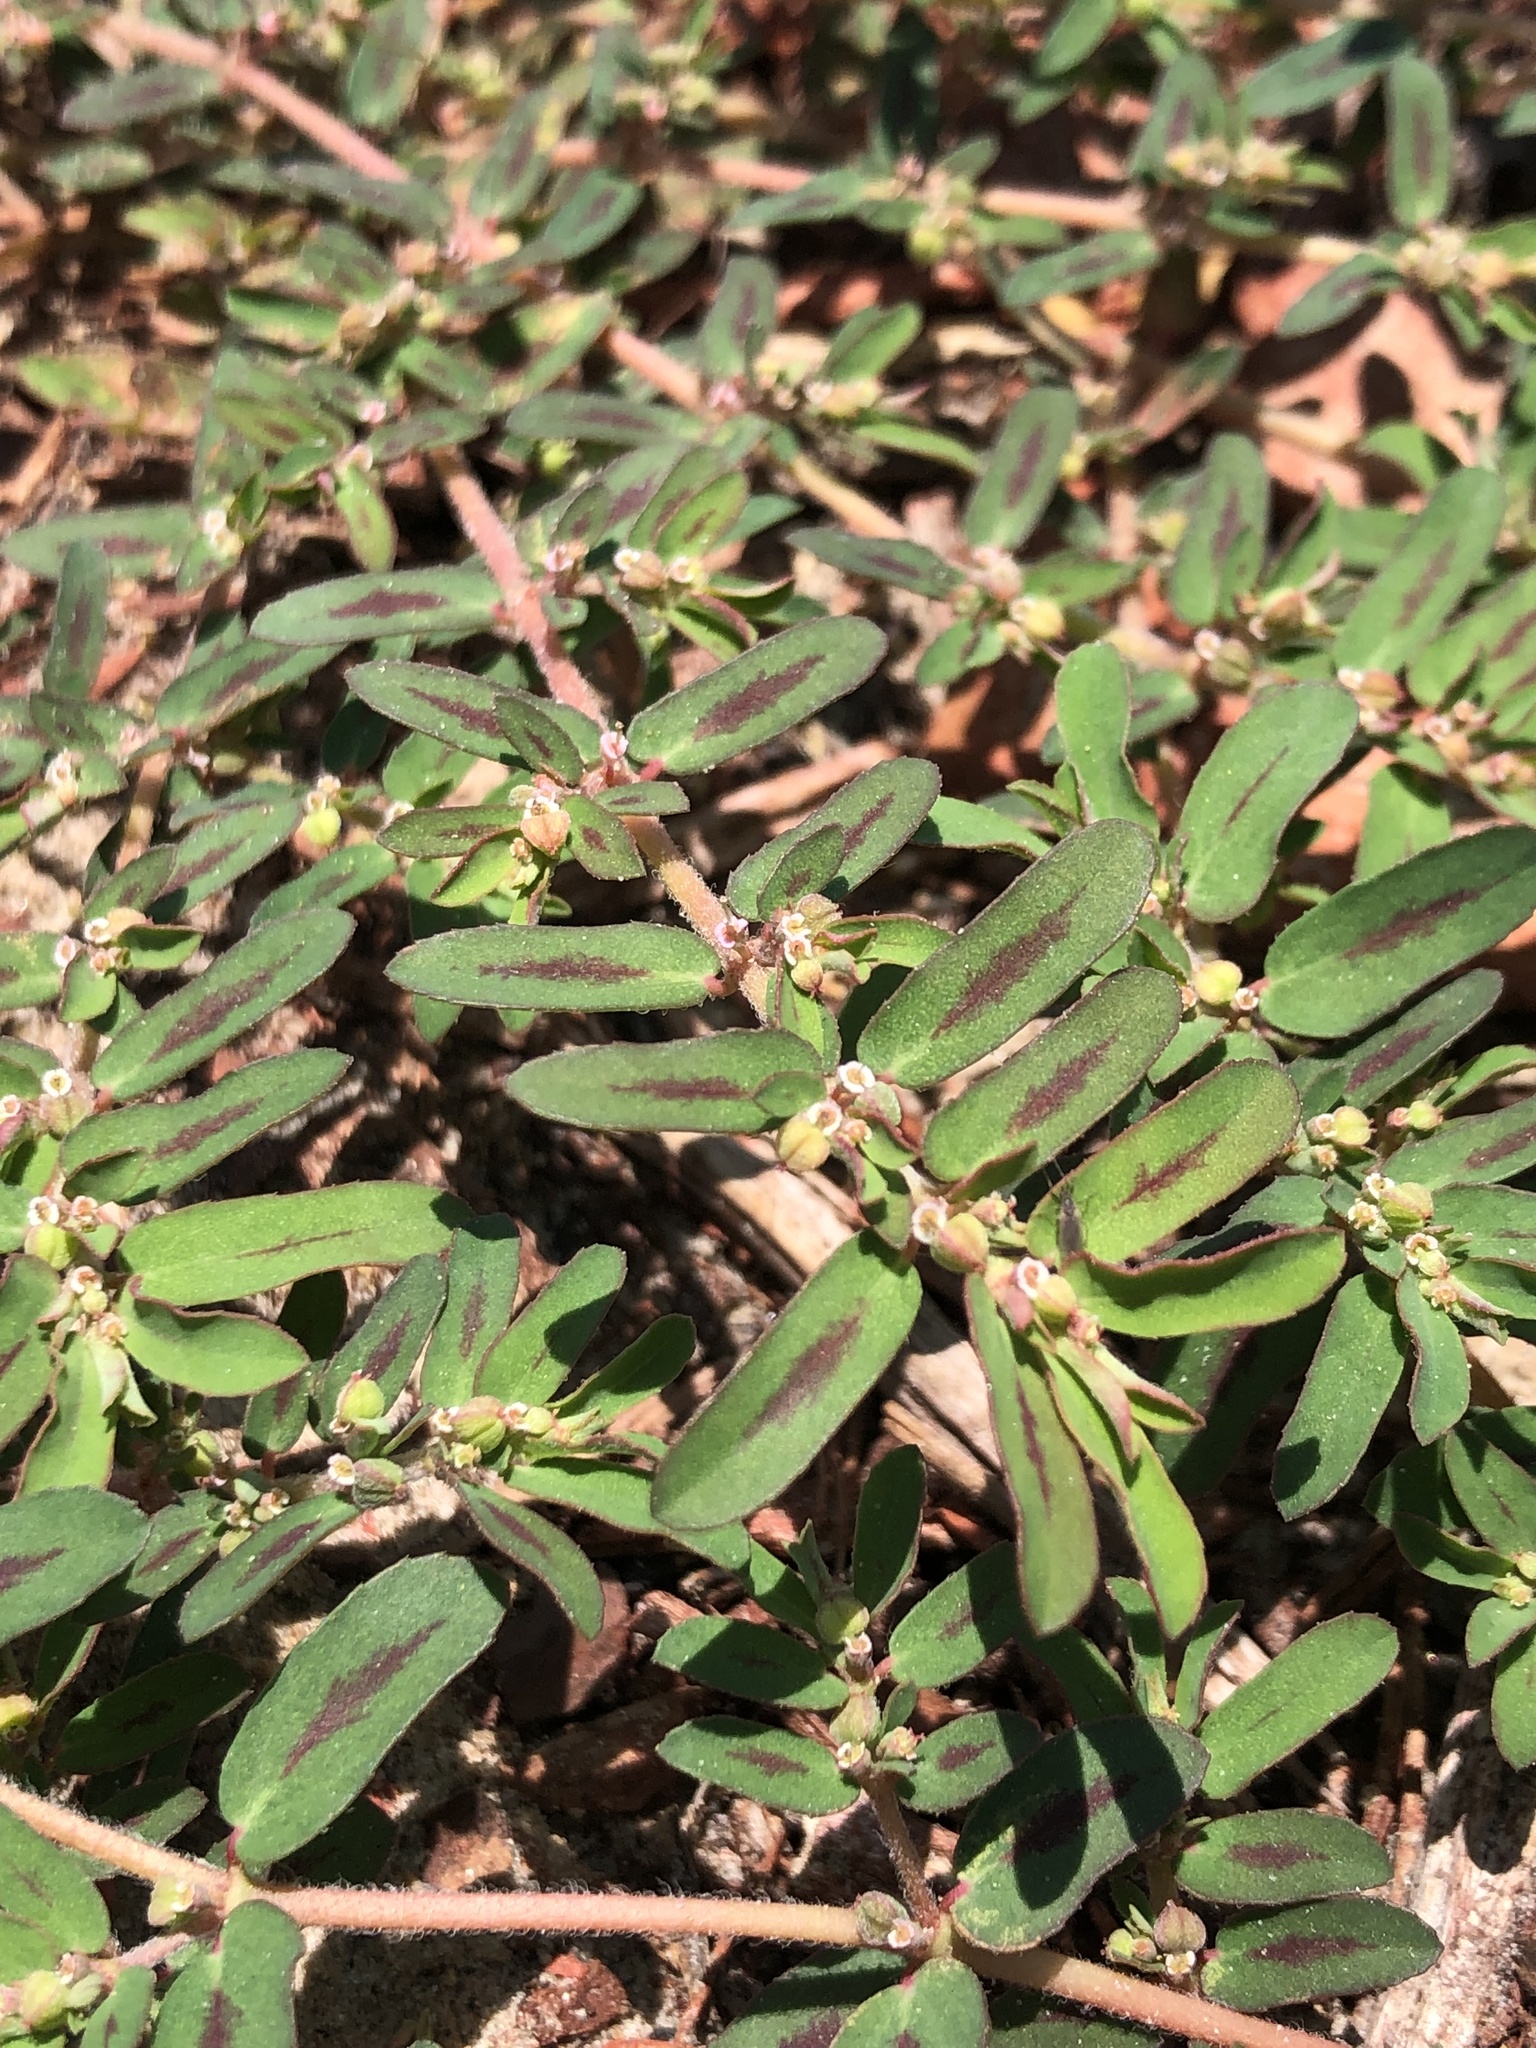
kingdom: Plantae
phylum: Tracheophyta
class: Magnoliopsida
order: Malpighiales
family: Euphorbiaceae
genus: Euphorbia
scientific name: Euphorbia maculata
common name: Spotted spurge
